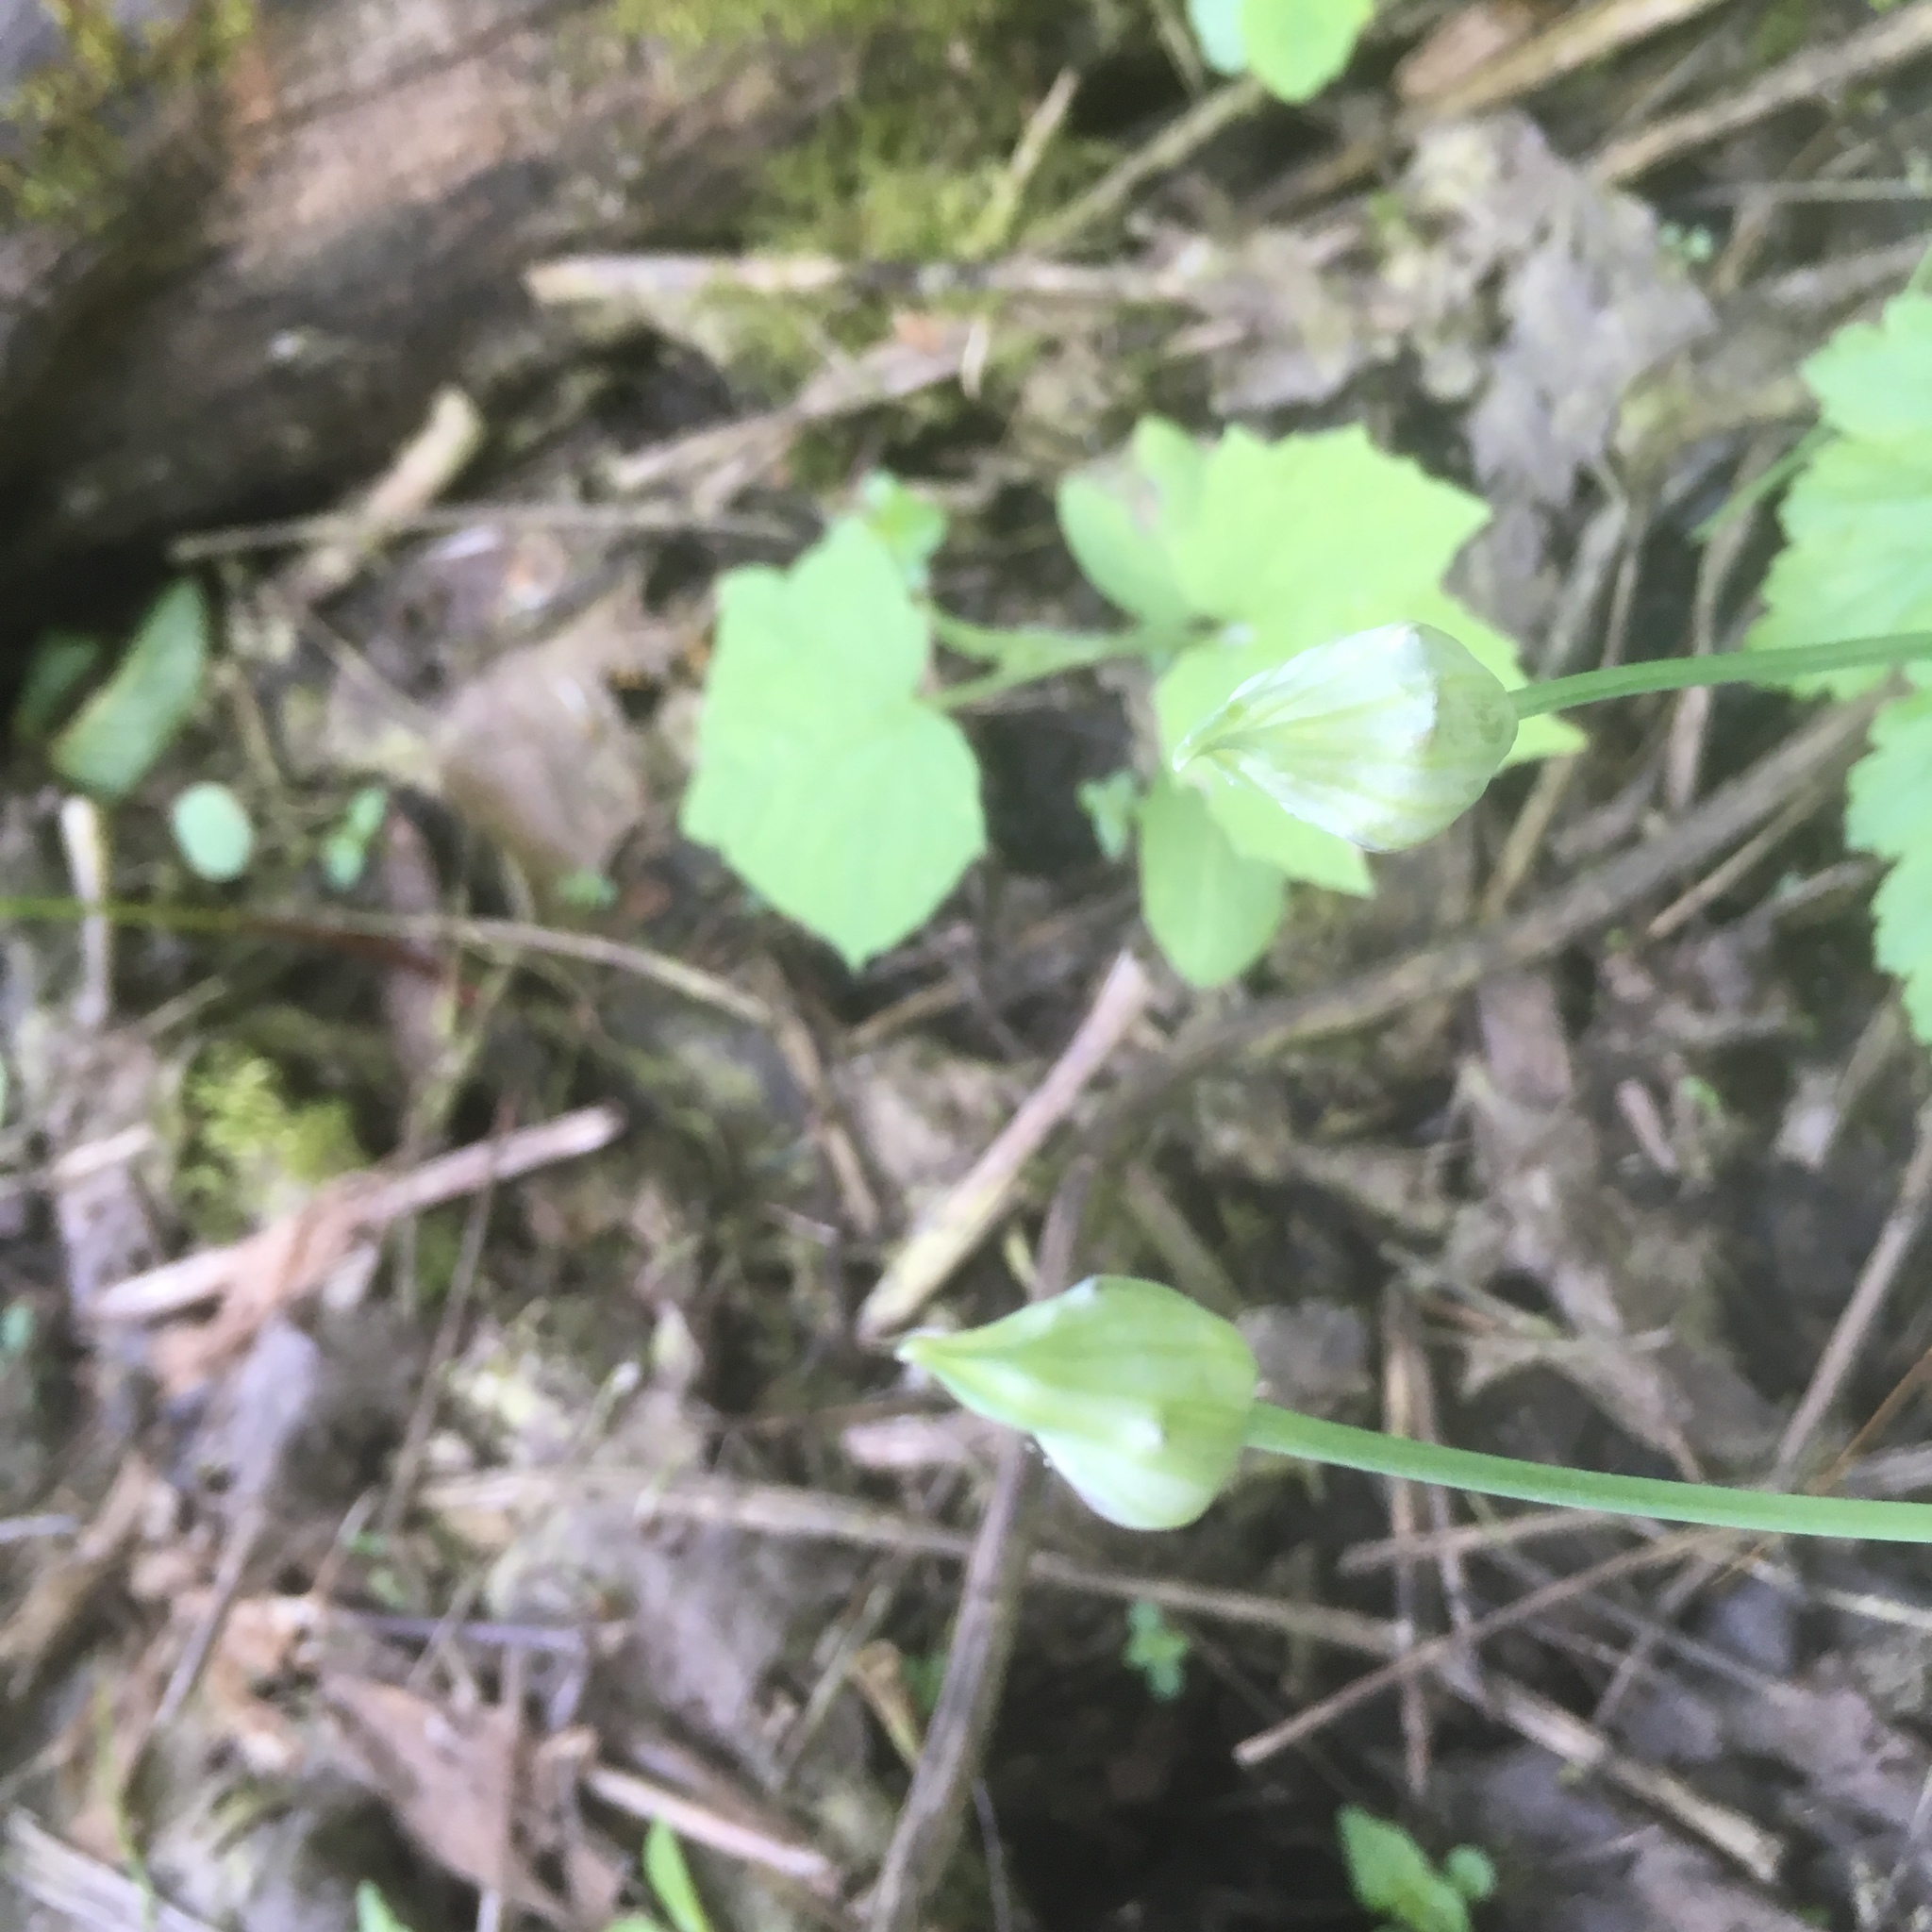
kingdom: Plantae
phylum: Tracheophyta
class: Liliopsida
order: Asparagales
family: Amaryllidaceae
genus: Allium
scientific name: Allium canadense
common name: Meadow garlic
